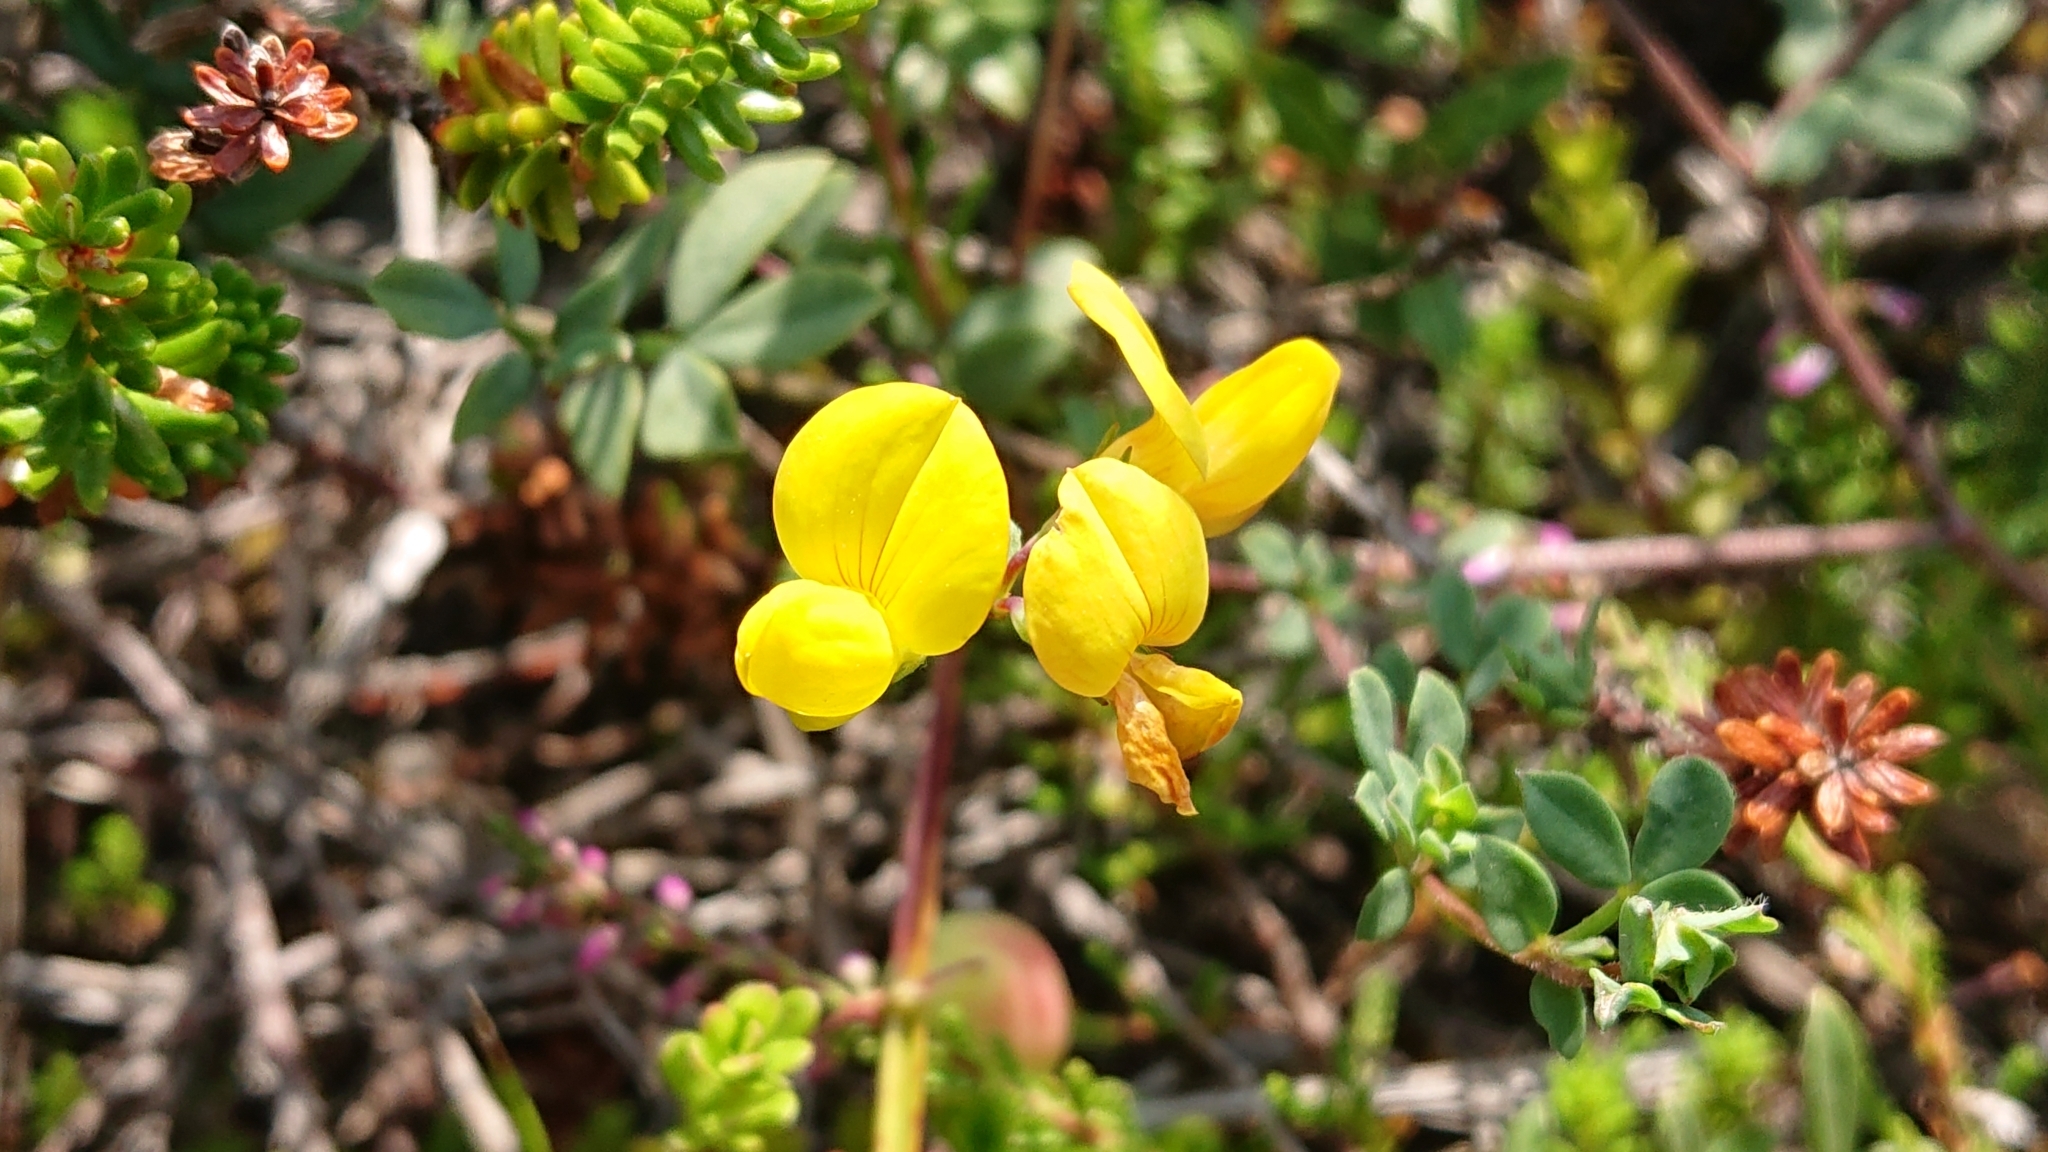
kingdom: Plantae
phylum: Tracheophyta
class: Magnoliopsida
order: Fabales
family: Fabaceae
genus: Lotus
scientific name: Lotus corniculatus
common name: Common bird's-foot-trefoil
